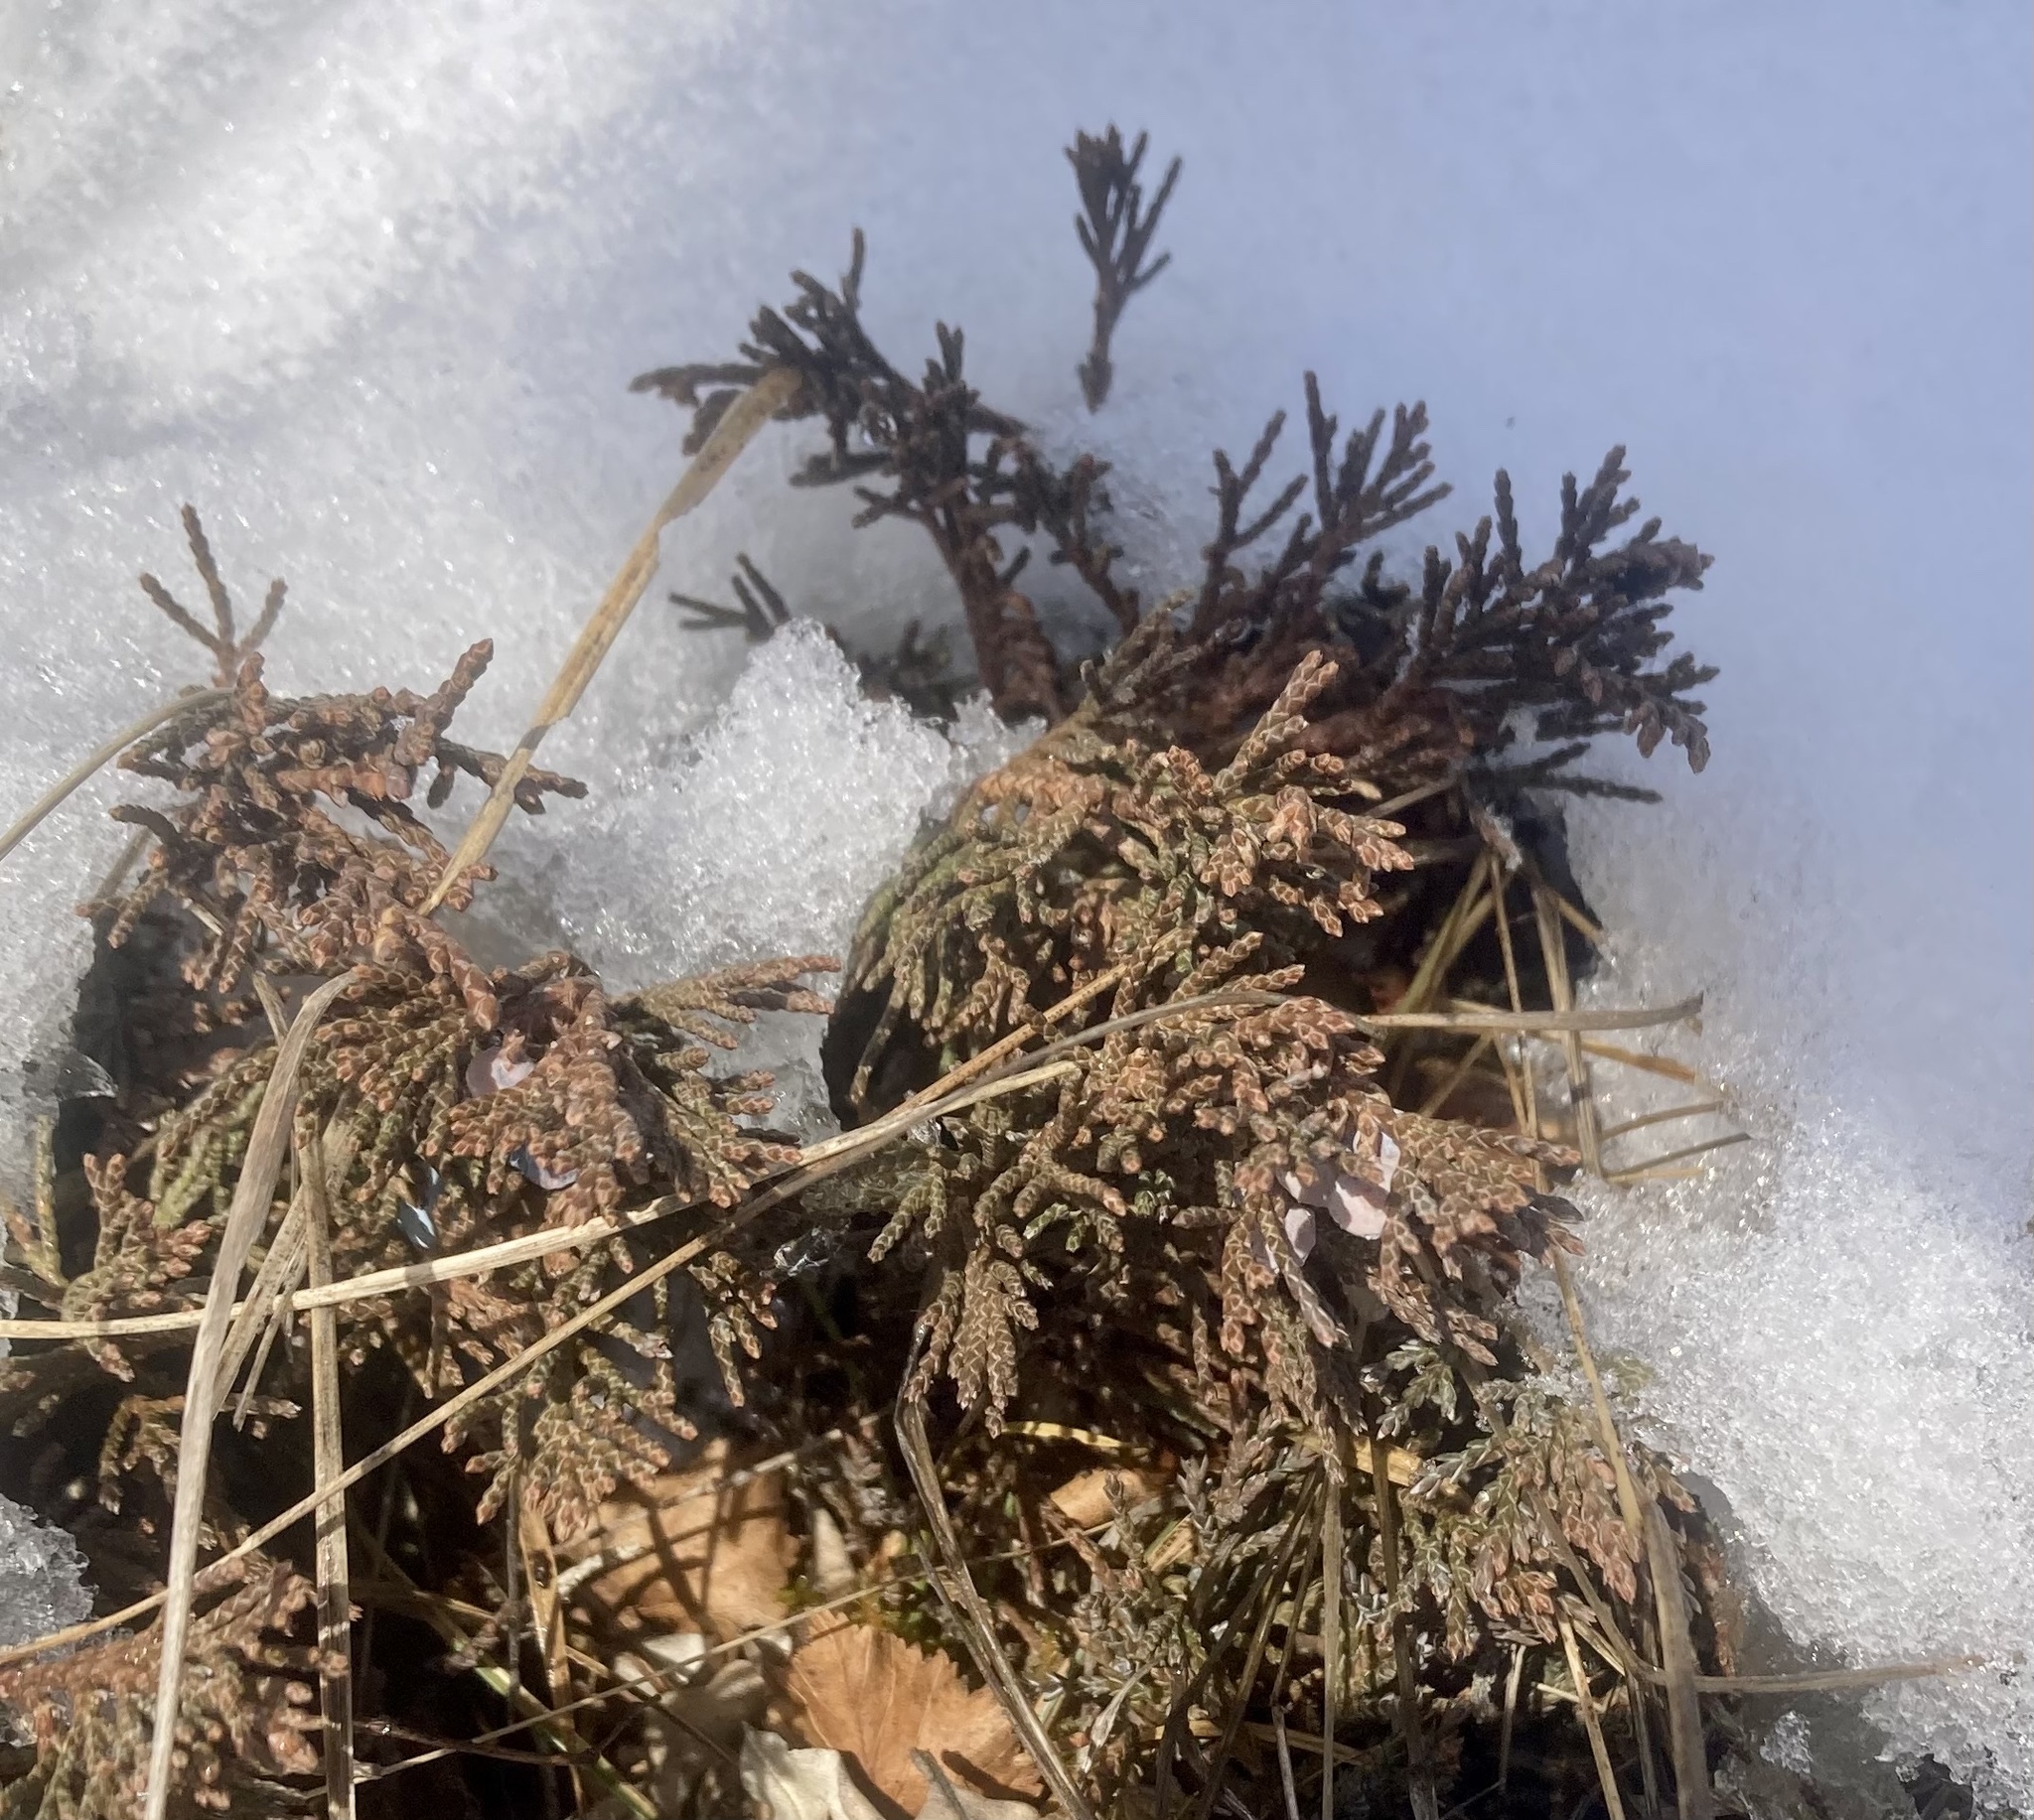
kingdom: Plantae
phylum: Tracheophyta
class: Pinopsida
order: Pinales
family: Cupressaceae
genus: Juniperus
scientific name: Juniperus horizontalis
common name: Creeping juniper
